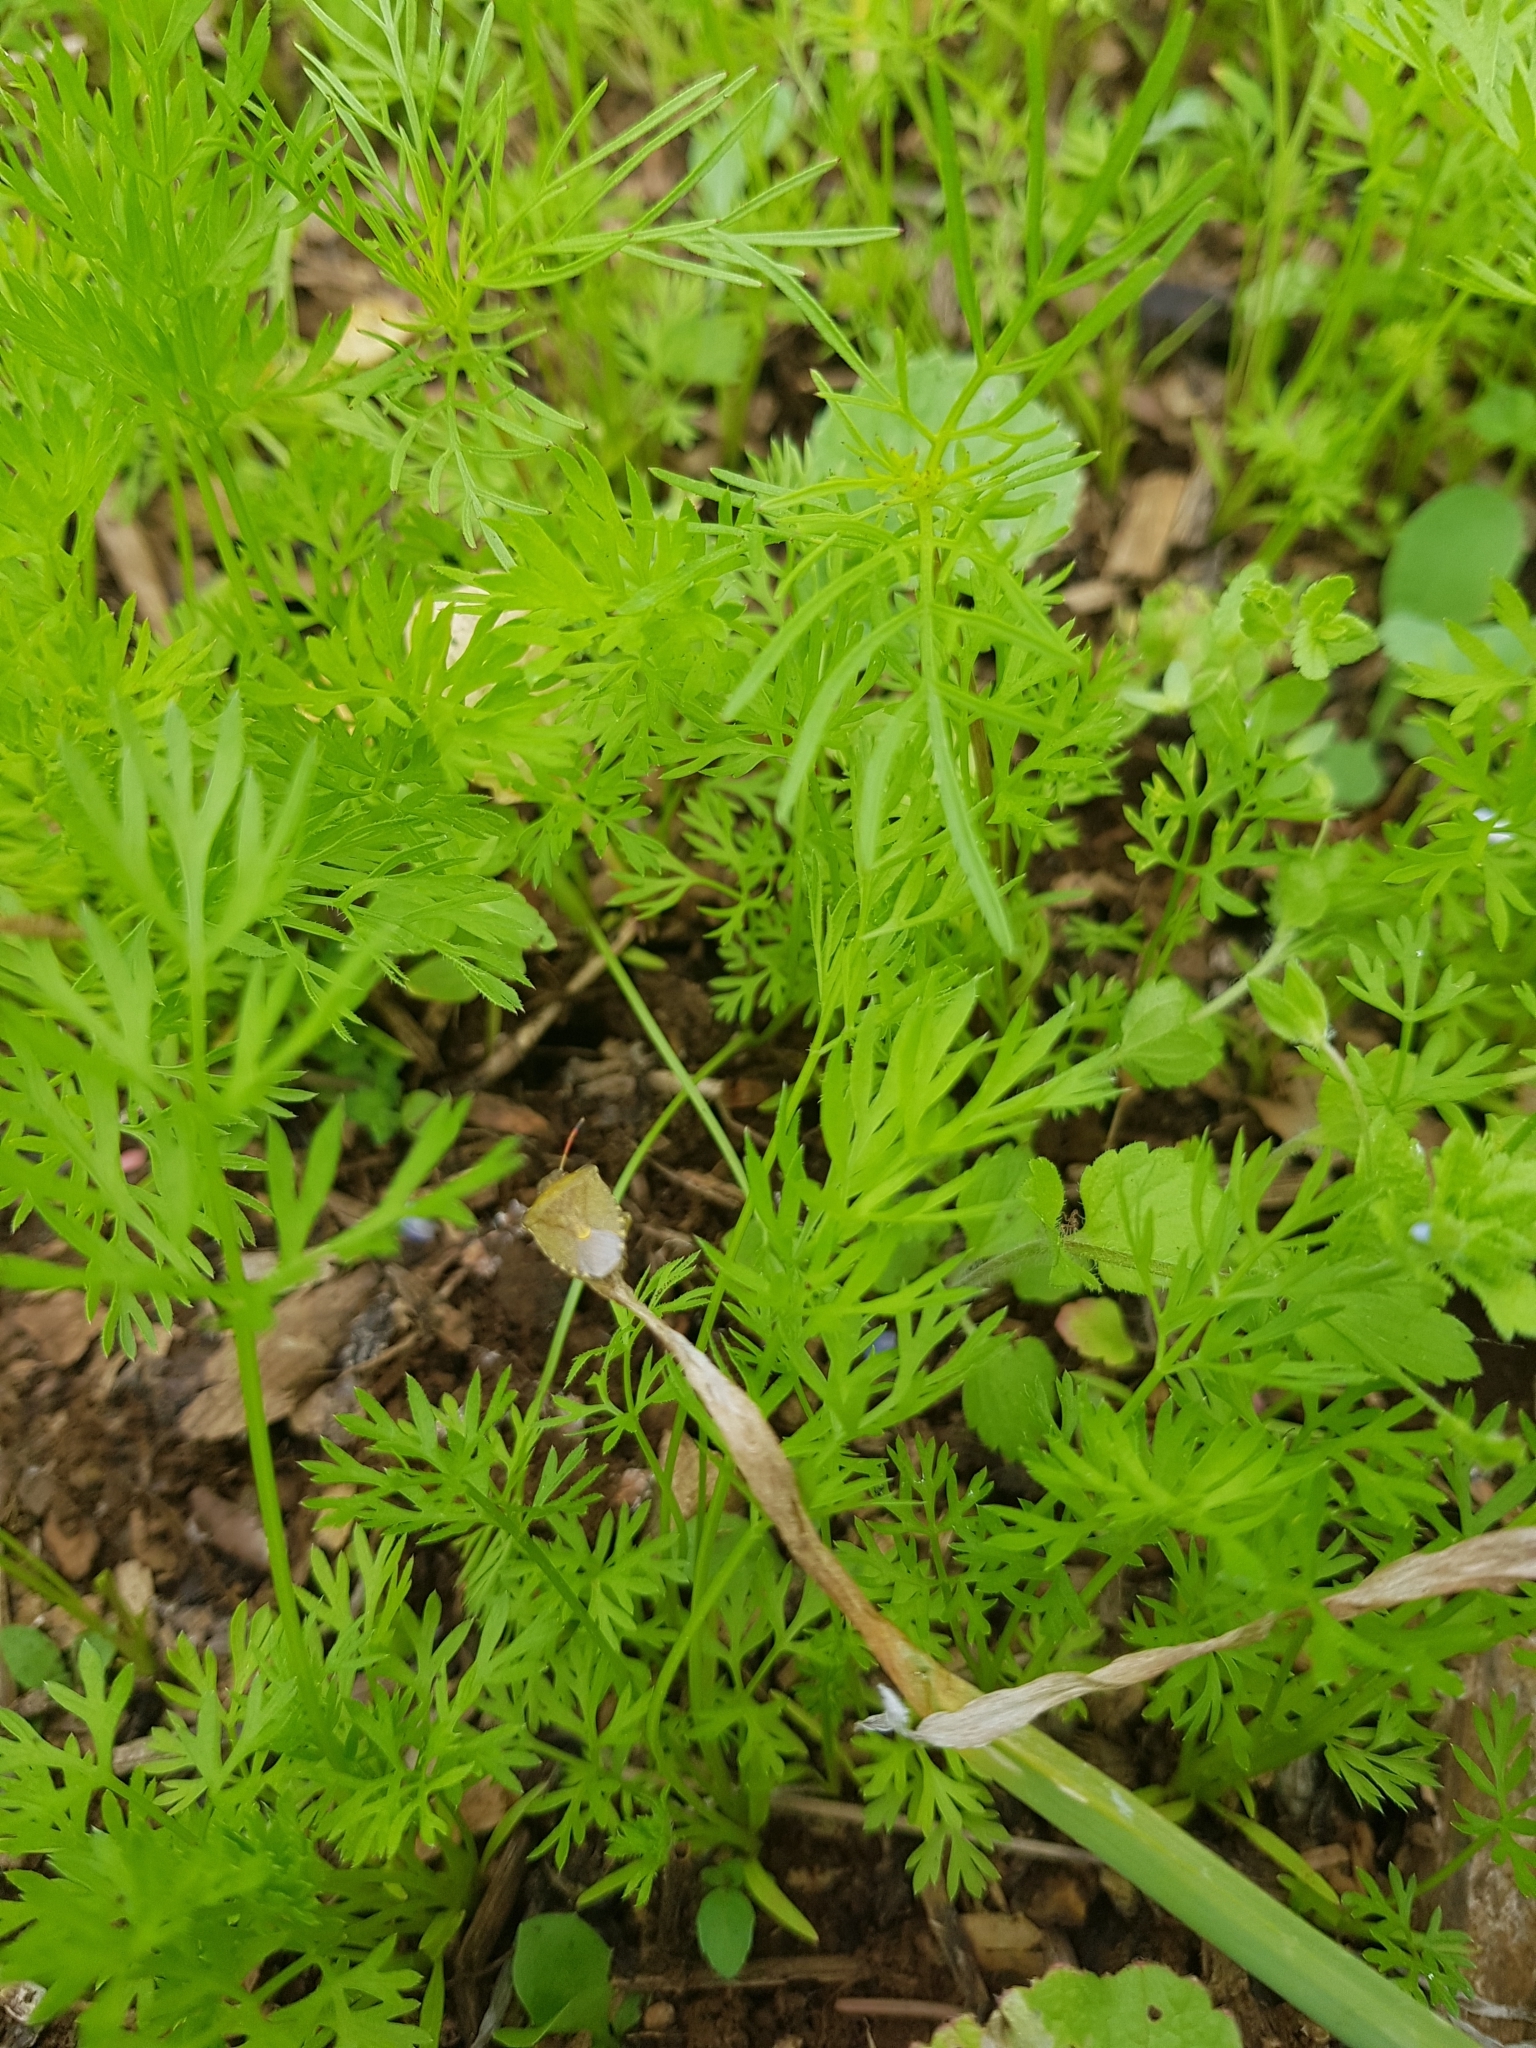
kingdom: Animalia
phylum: Arthropoda
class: Insecta
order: Hemiptera
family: Pentatomidae
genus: Holcostethus
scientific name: Holcostethus strictus
